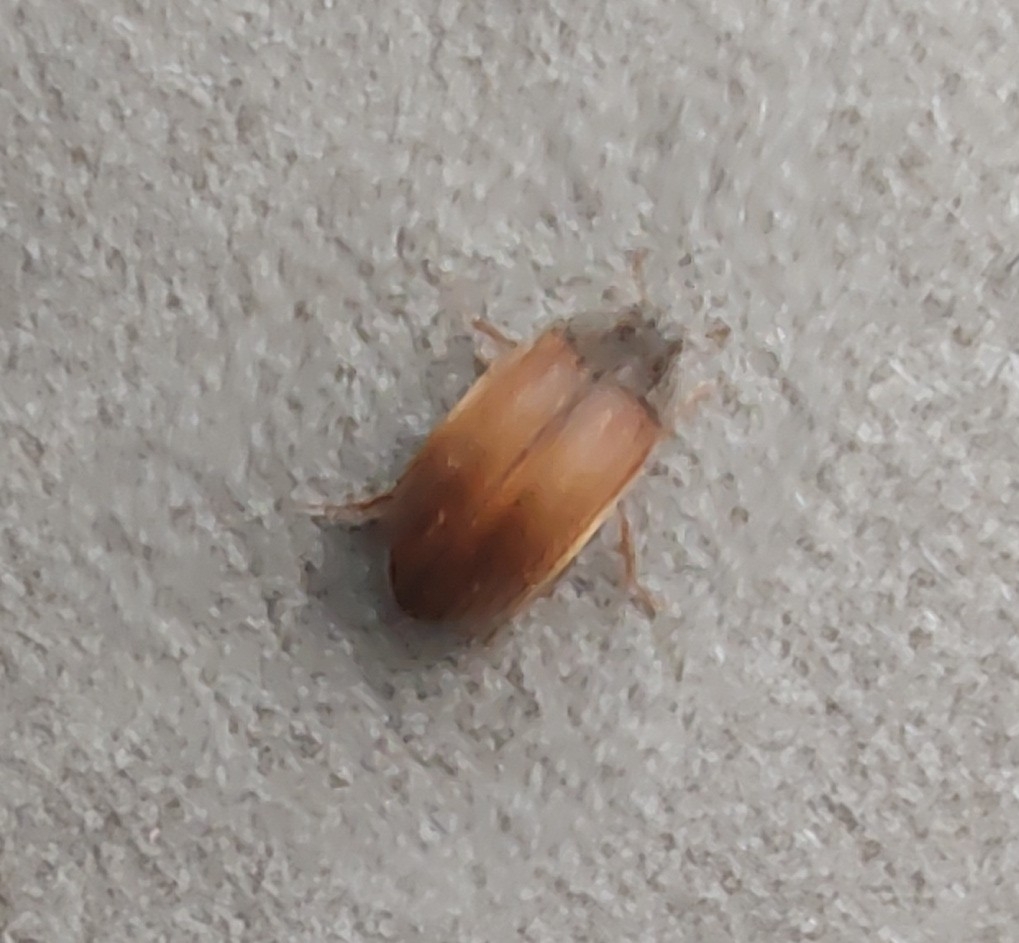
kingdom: Animalia
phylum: Arthropoda
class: Insecta
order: Coleoptera
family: Dermestidae
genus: Attagenus
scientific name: Attagenus smirnovi
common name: Brown carpet beetle
